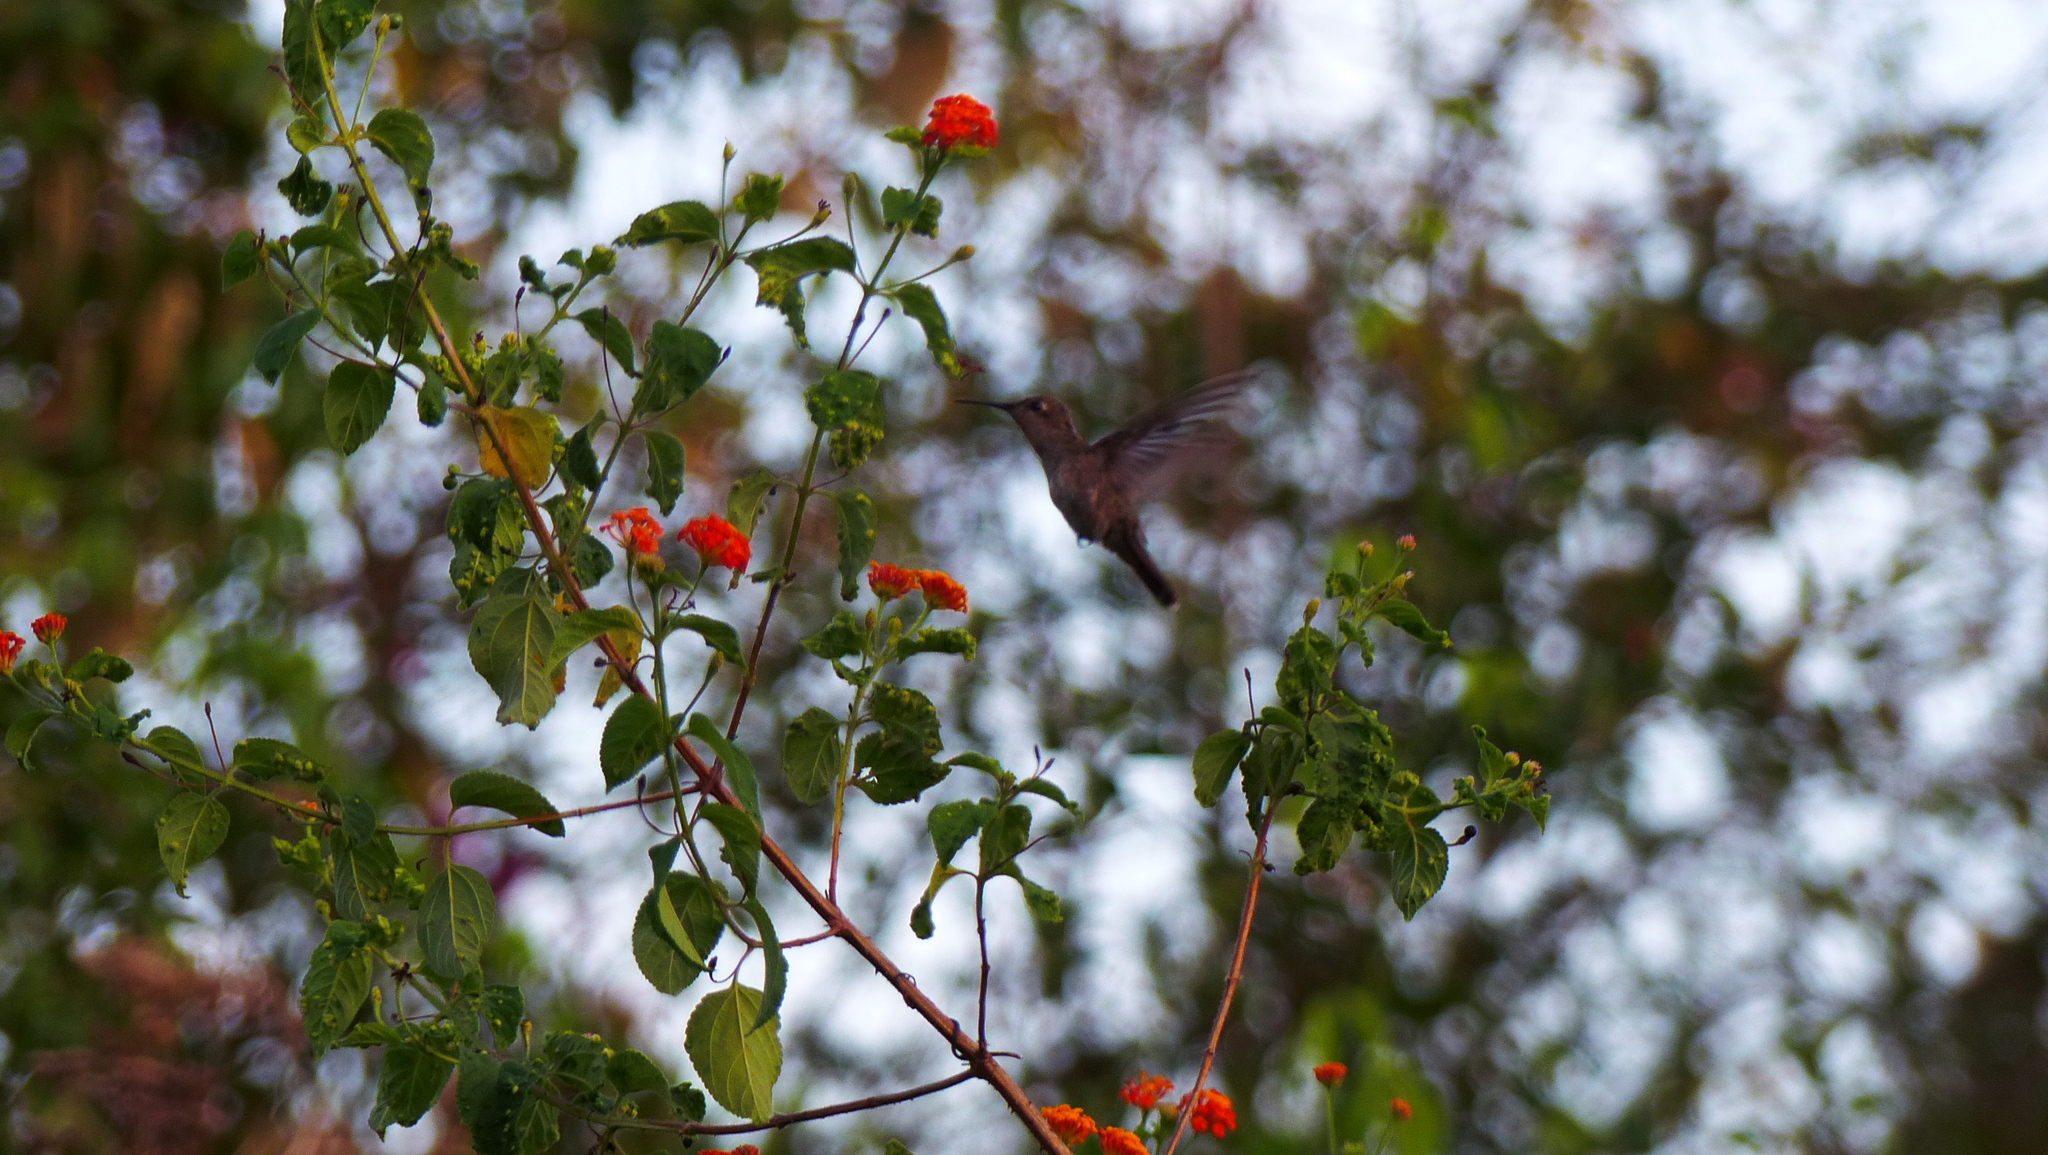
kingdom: Animalia
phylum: Chordata
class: Aves
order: Apodiformes
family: Trochilidae
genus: Chrysolampis
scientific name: Chrysolampis mosquitus
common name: Ruby-topaz hummingbird
